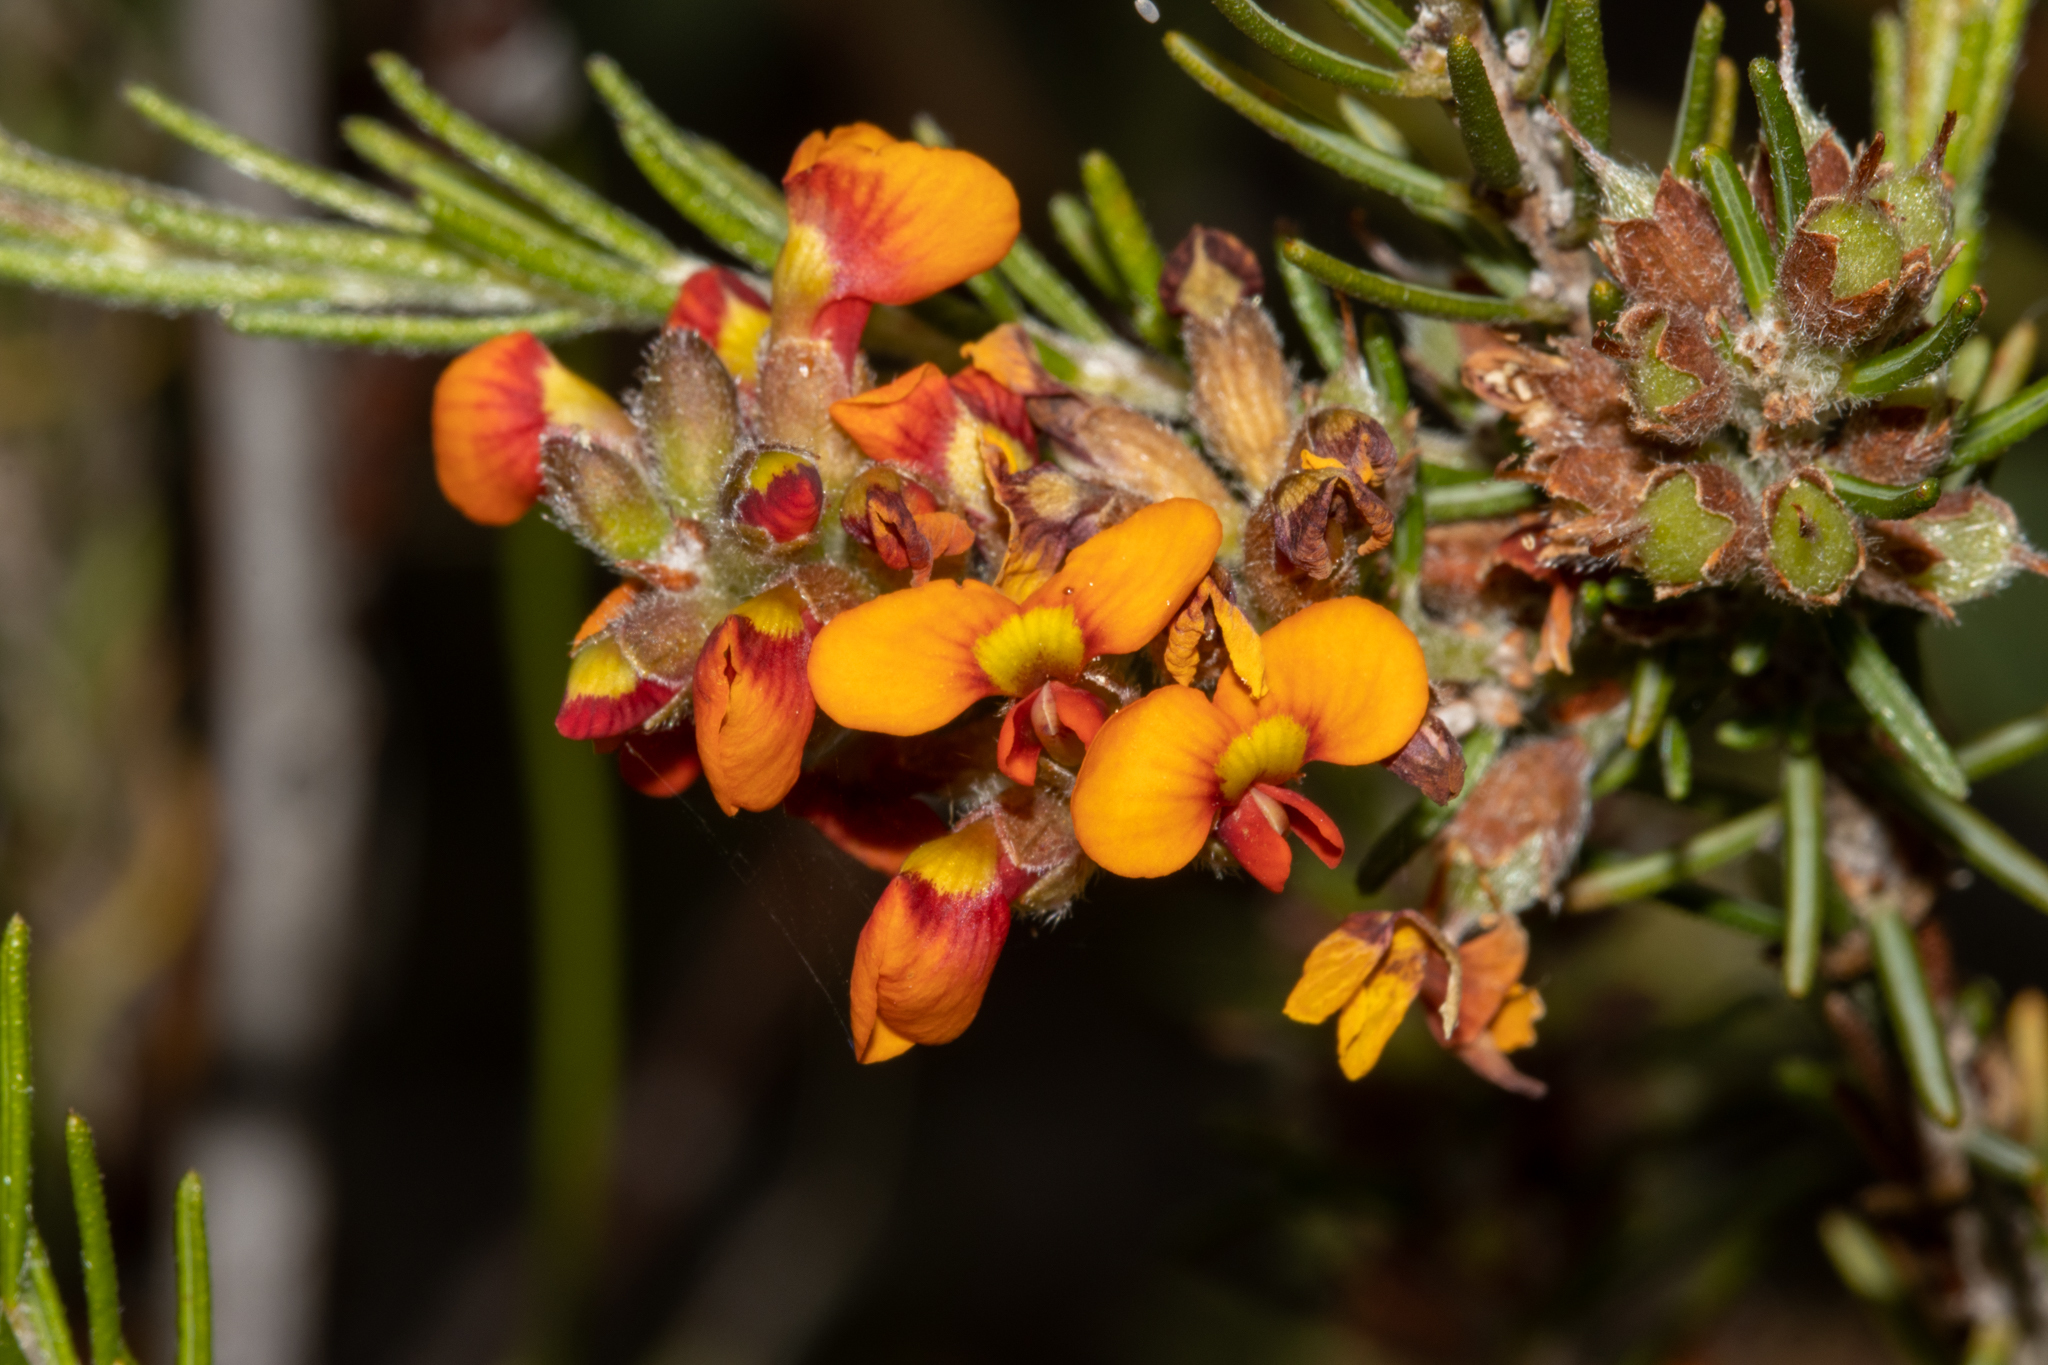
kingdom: Plantae
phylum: Tracheophyta
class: Magnoliopsida
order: Fabales
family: Fabaceae
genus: Dillwynia
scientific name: Dillwynia sericea
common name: Showy parrot-pea
